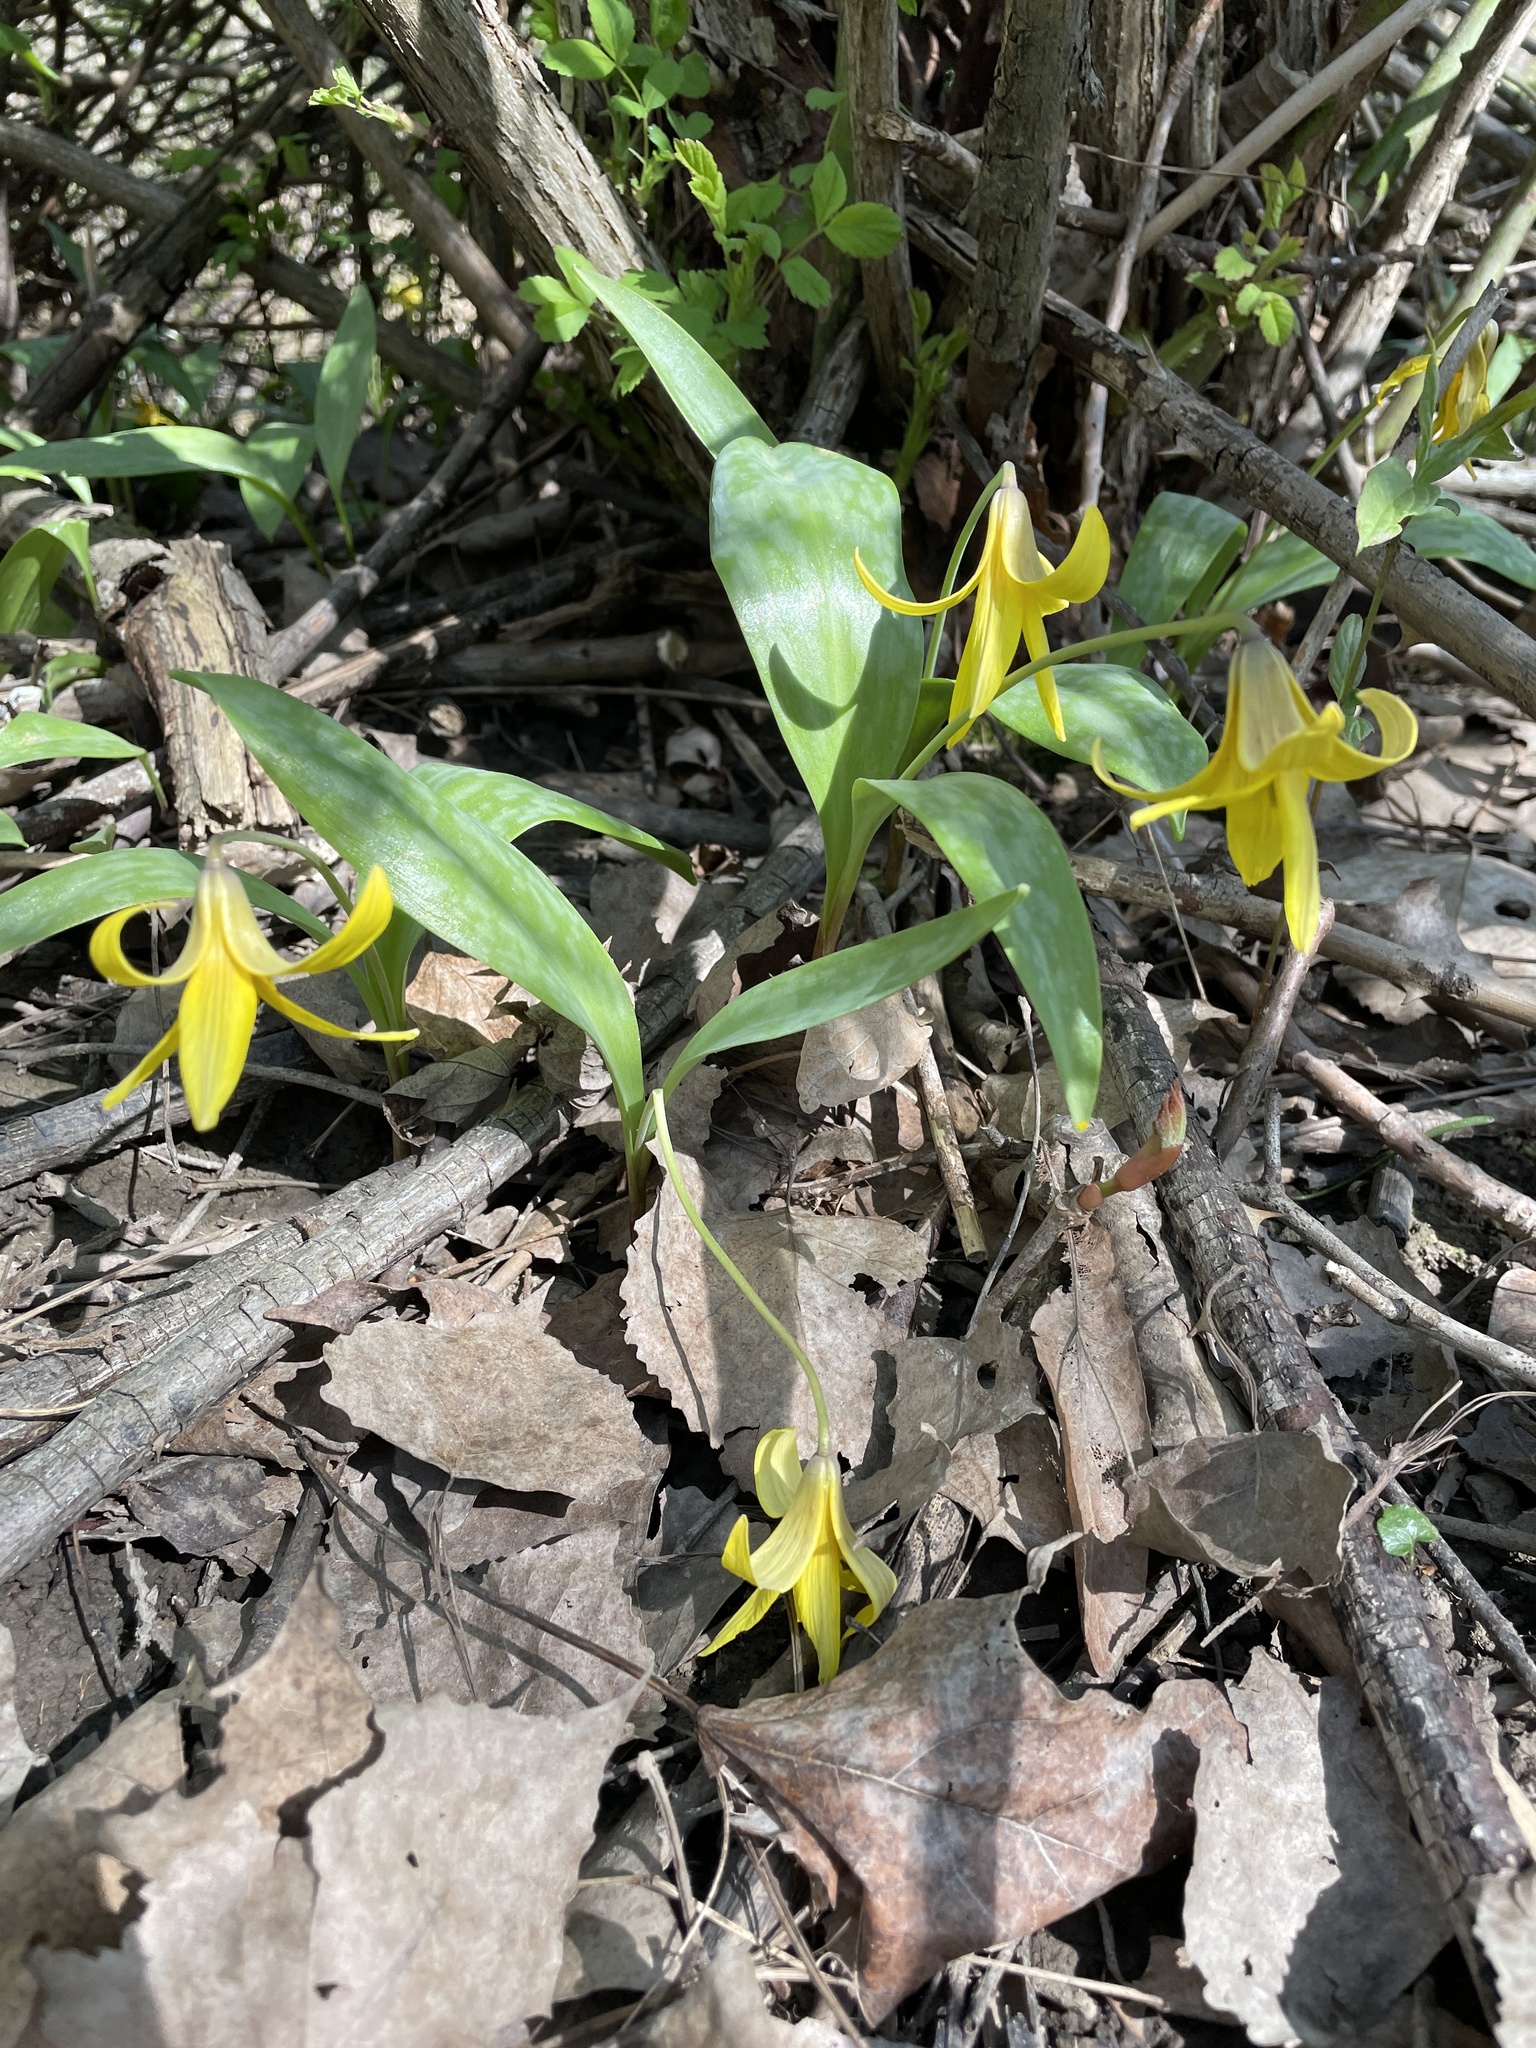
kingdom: Plantae
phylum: Tracheophyta
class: Liliopsida
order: Liliales
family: Liliaceae
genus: Erythronium
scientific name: Erythronium americanum
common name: Yellow adder's-tongue
